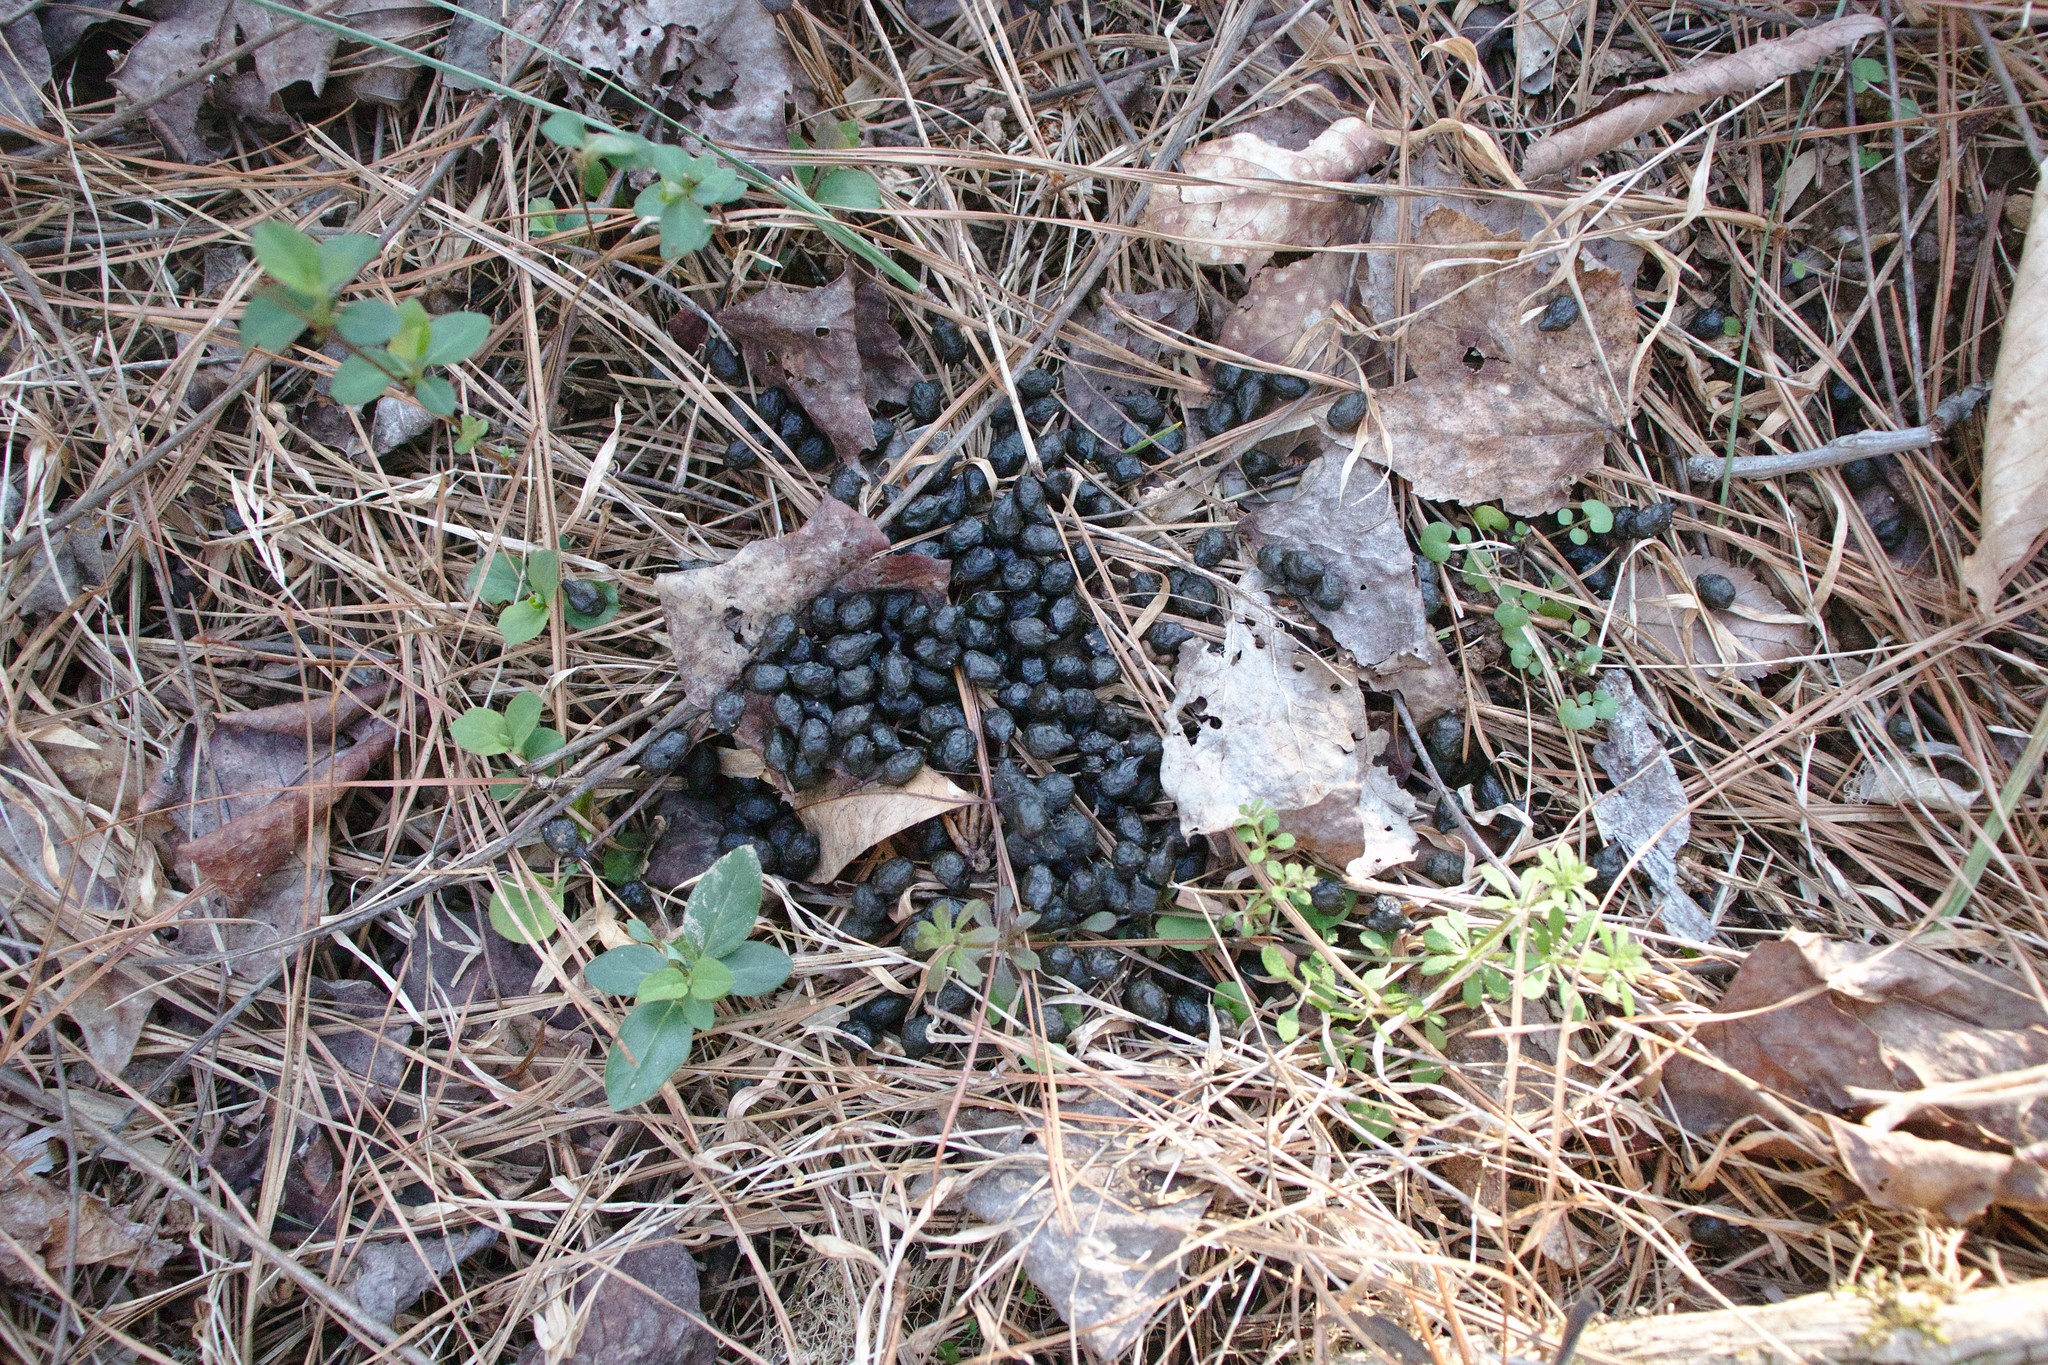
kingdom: Animalia
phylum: Chordata
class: Mammalia
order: Artiodactyla
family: Cervidae
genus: Odocoileus
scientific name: Odocoileus virginianus
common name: White-tailed deer
